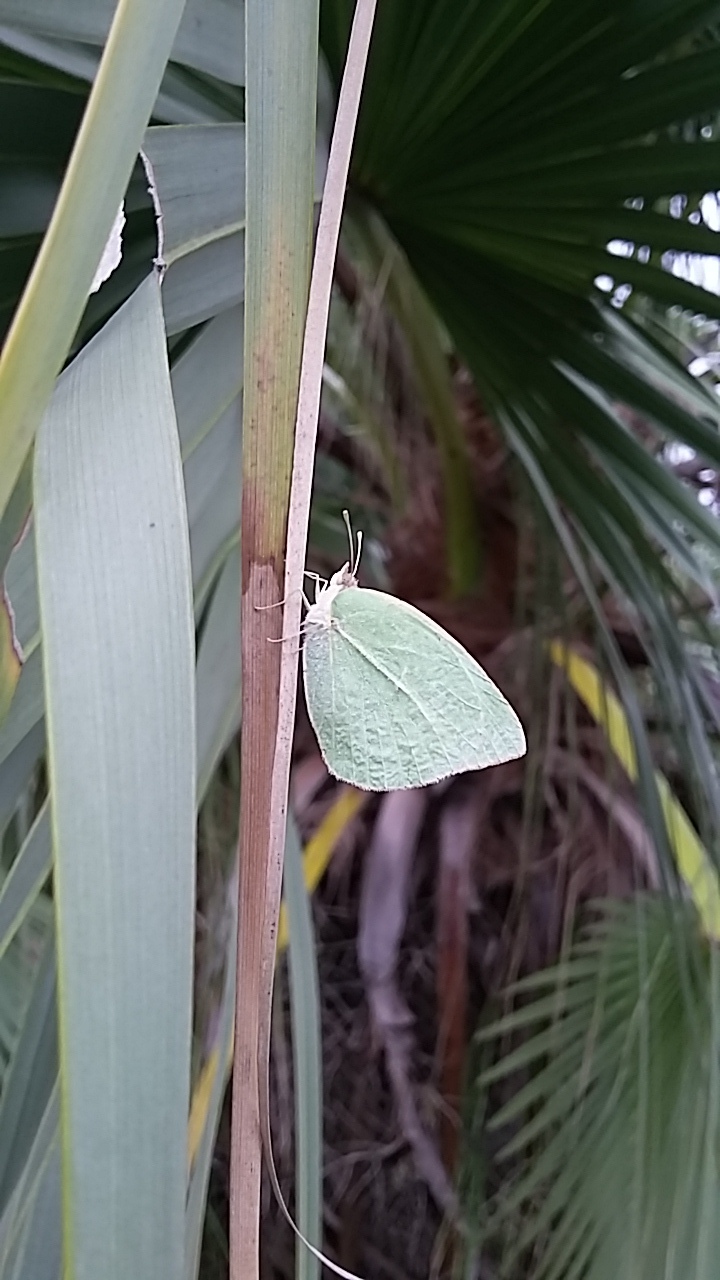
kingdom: Animalia
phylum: Arthropoda
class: Insecta
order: Lepidoptera
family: Pieridae
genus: Kricogonia
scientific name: Kricogonia lyside
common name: Guayacan sulphur,
